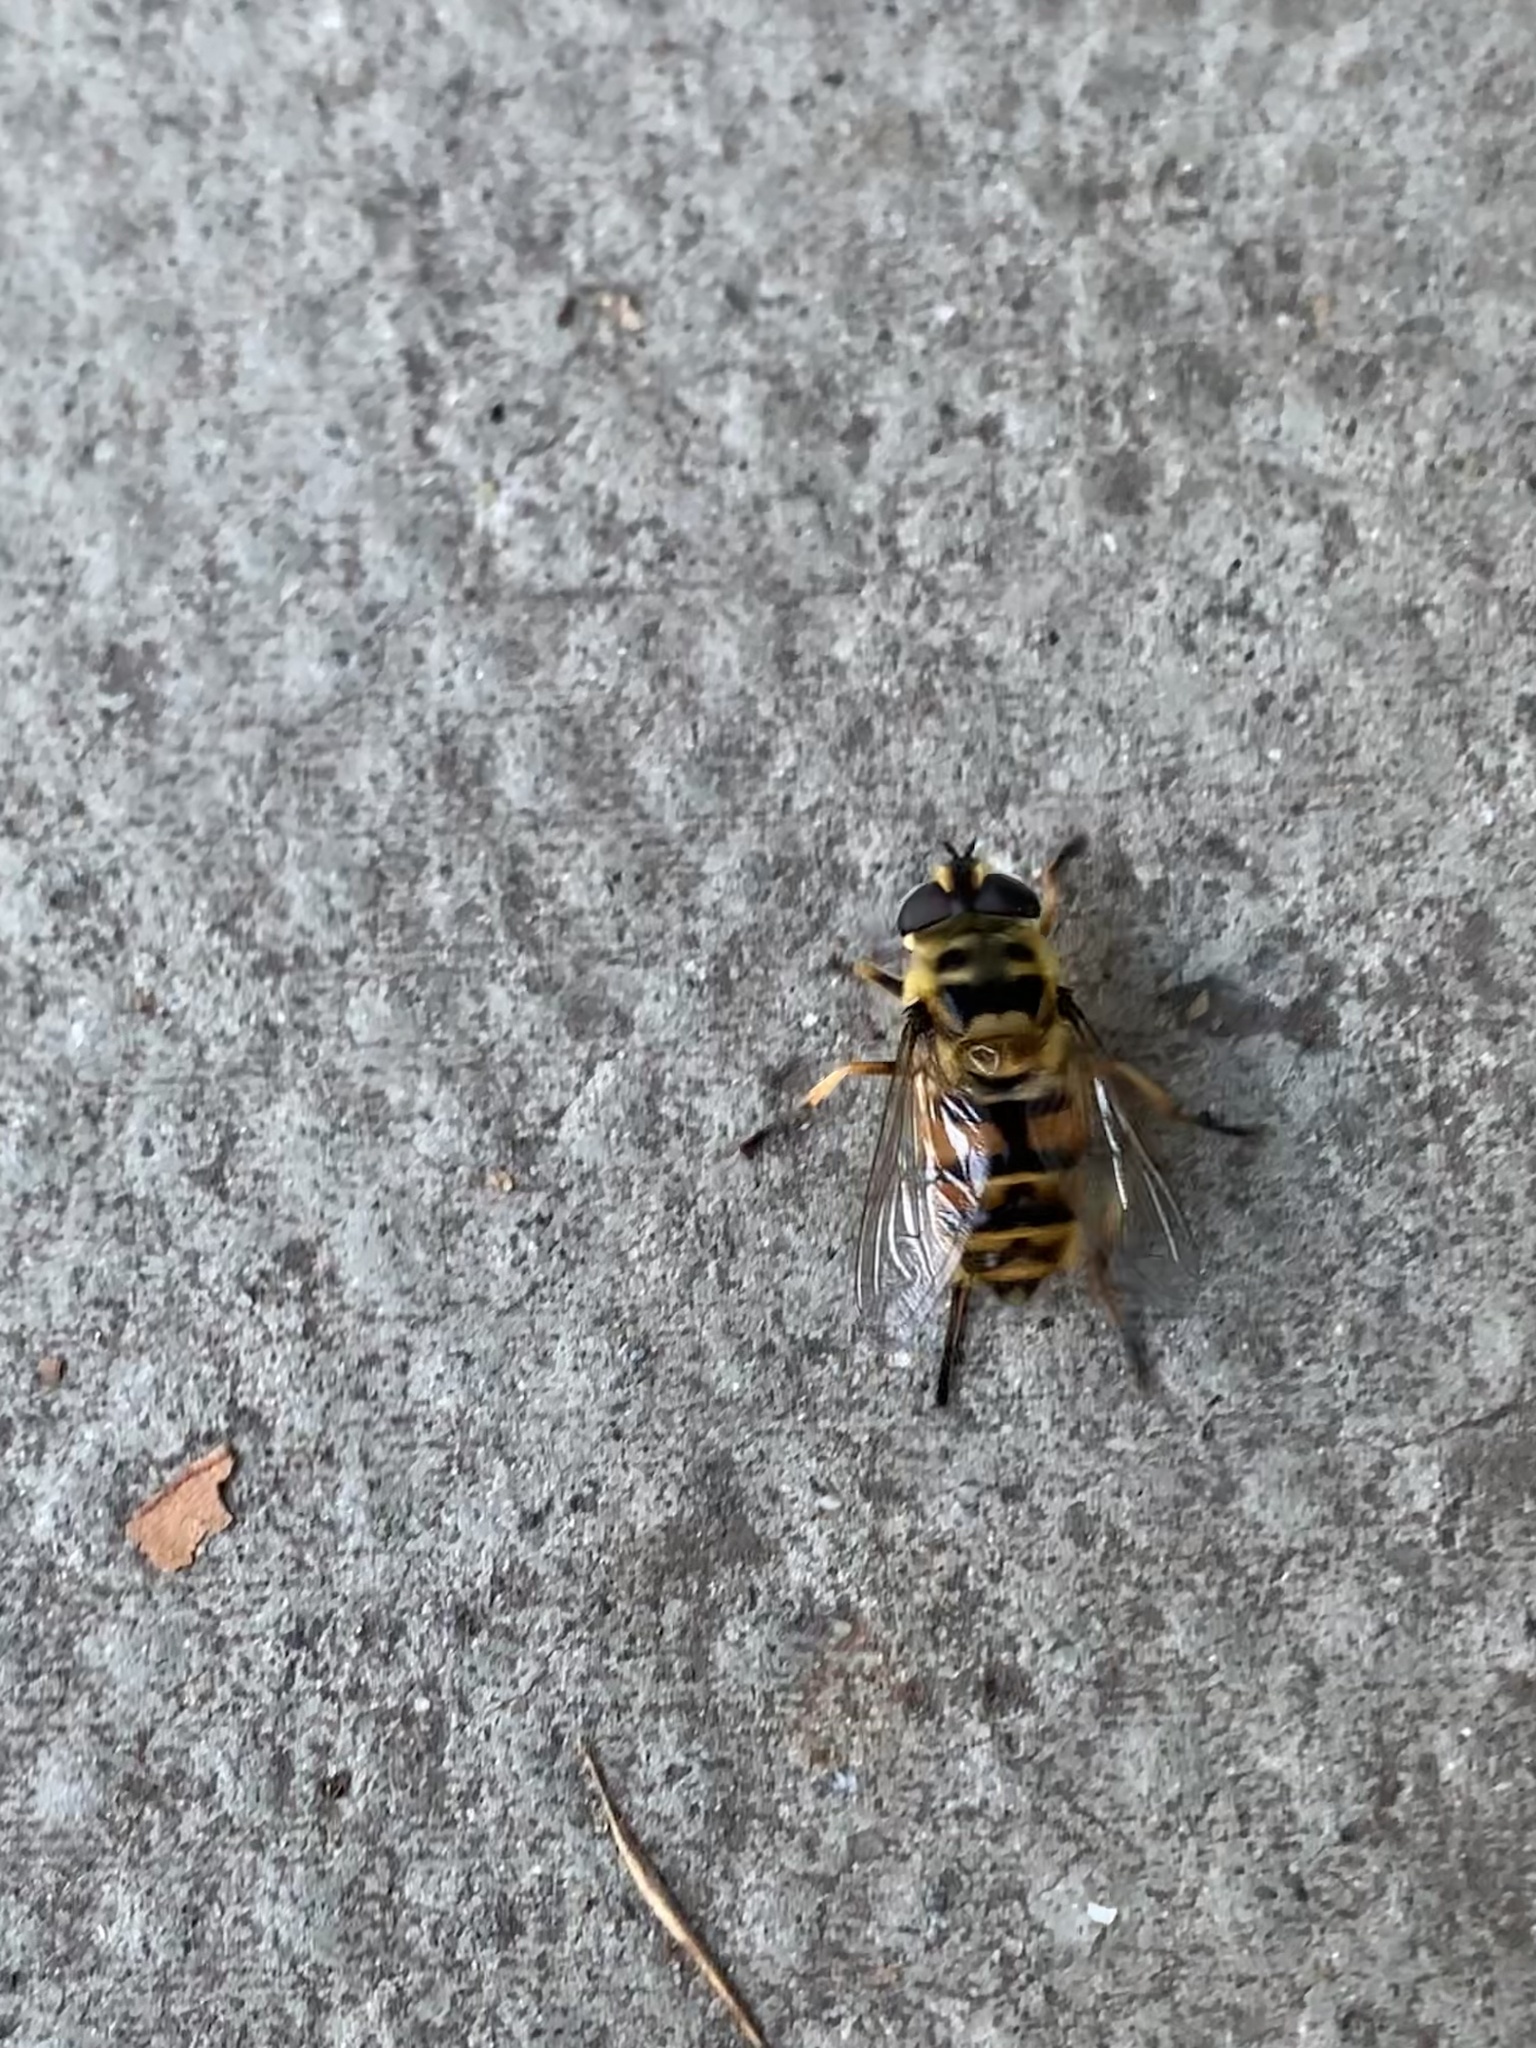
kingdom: Animalia
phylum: Arthropoda
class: Insecta
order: Diptera
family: Syrphidae
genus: Myathropa
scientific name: Myathropa florea
